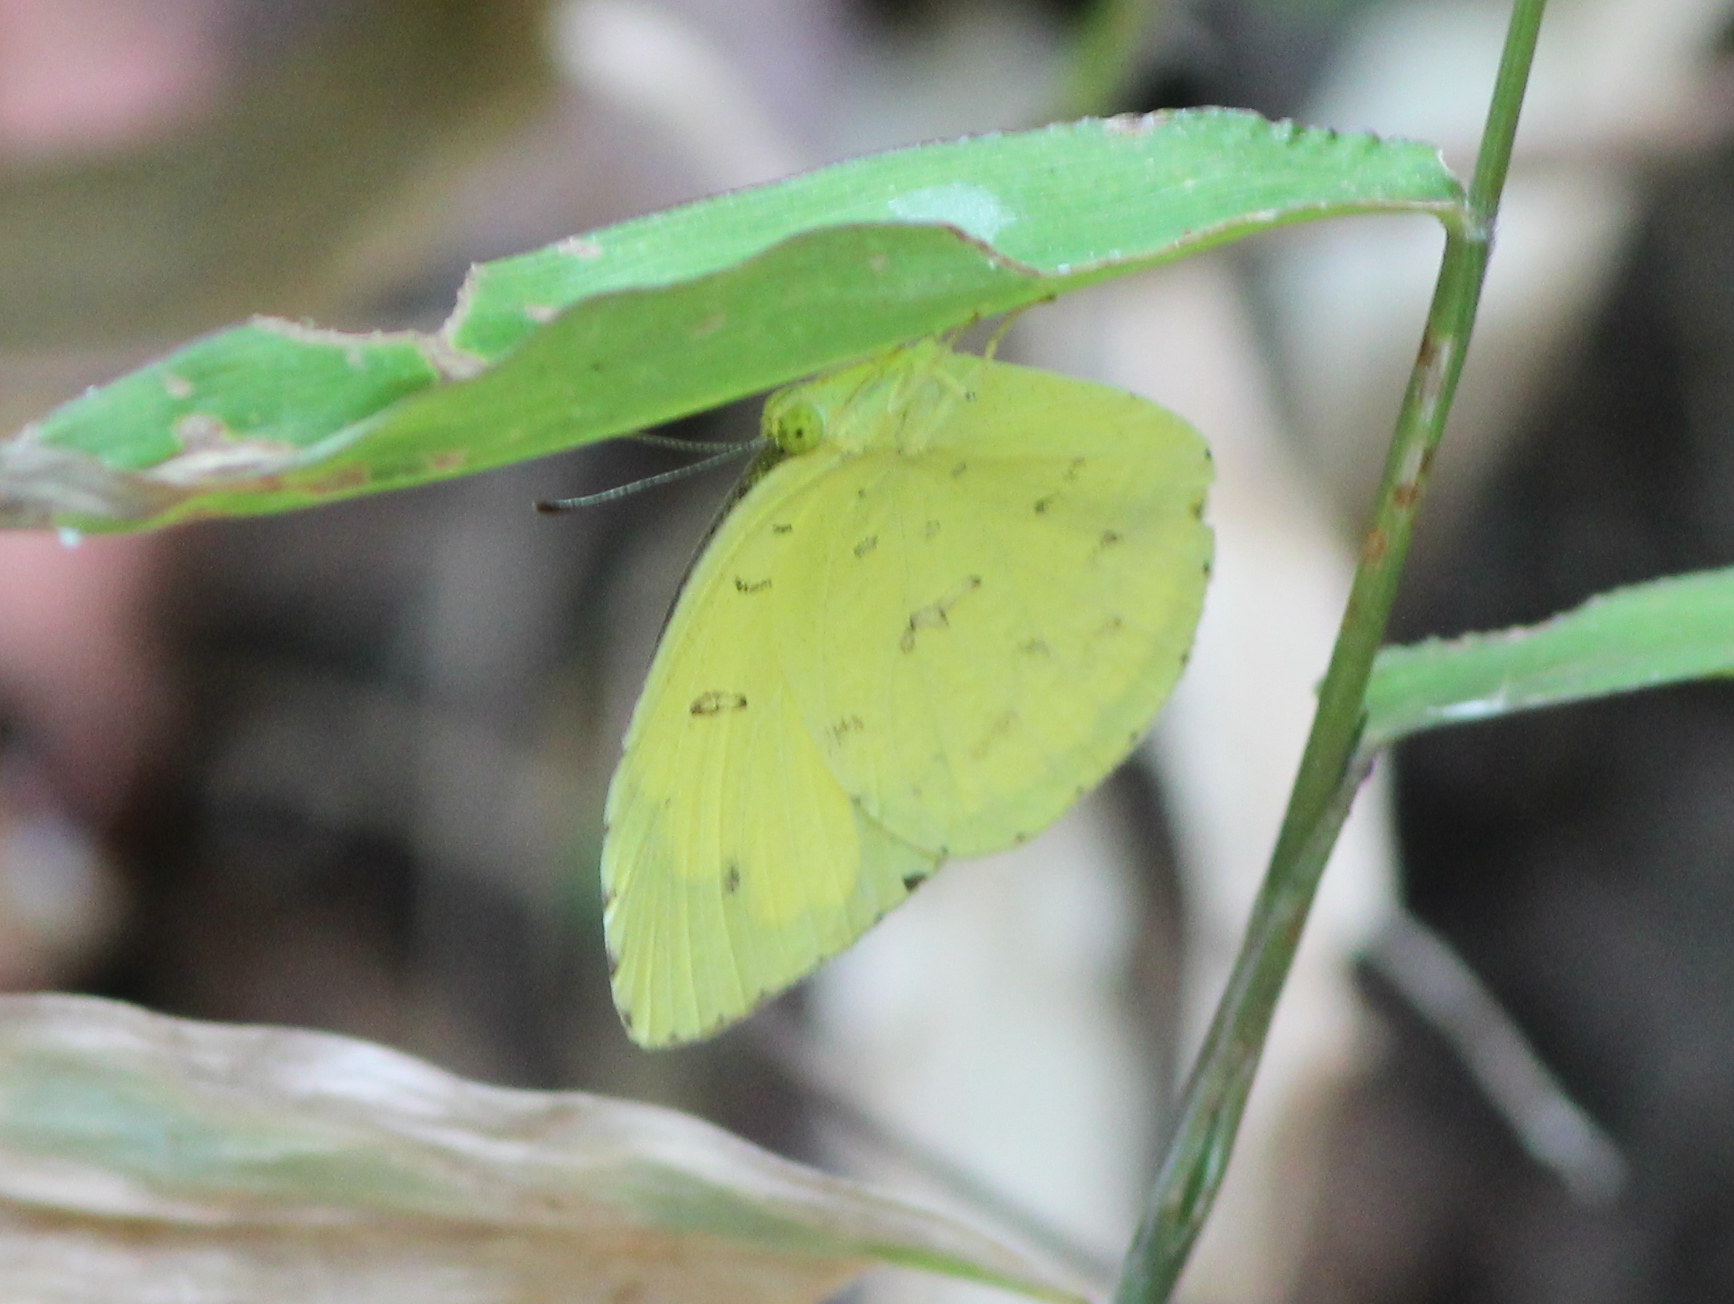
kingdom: Animalia
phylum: Arthropoda
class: Insecta
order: Lepidoptera
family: Pieridae
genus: Eurema
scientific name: Eurema hecabe
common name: Pale grass yellow
